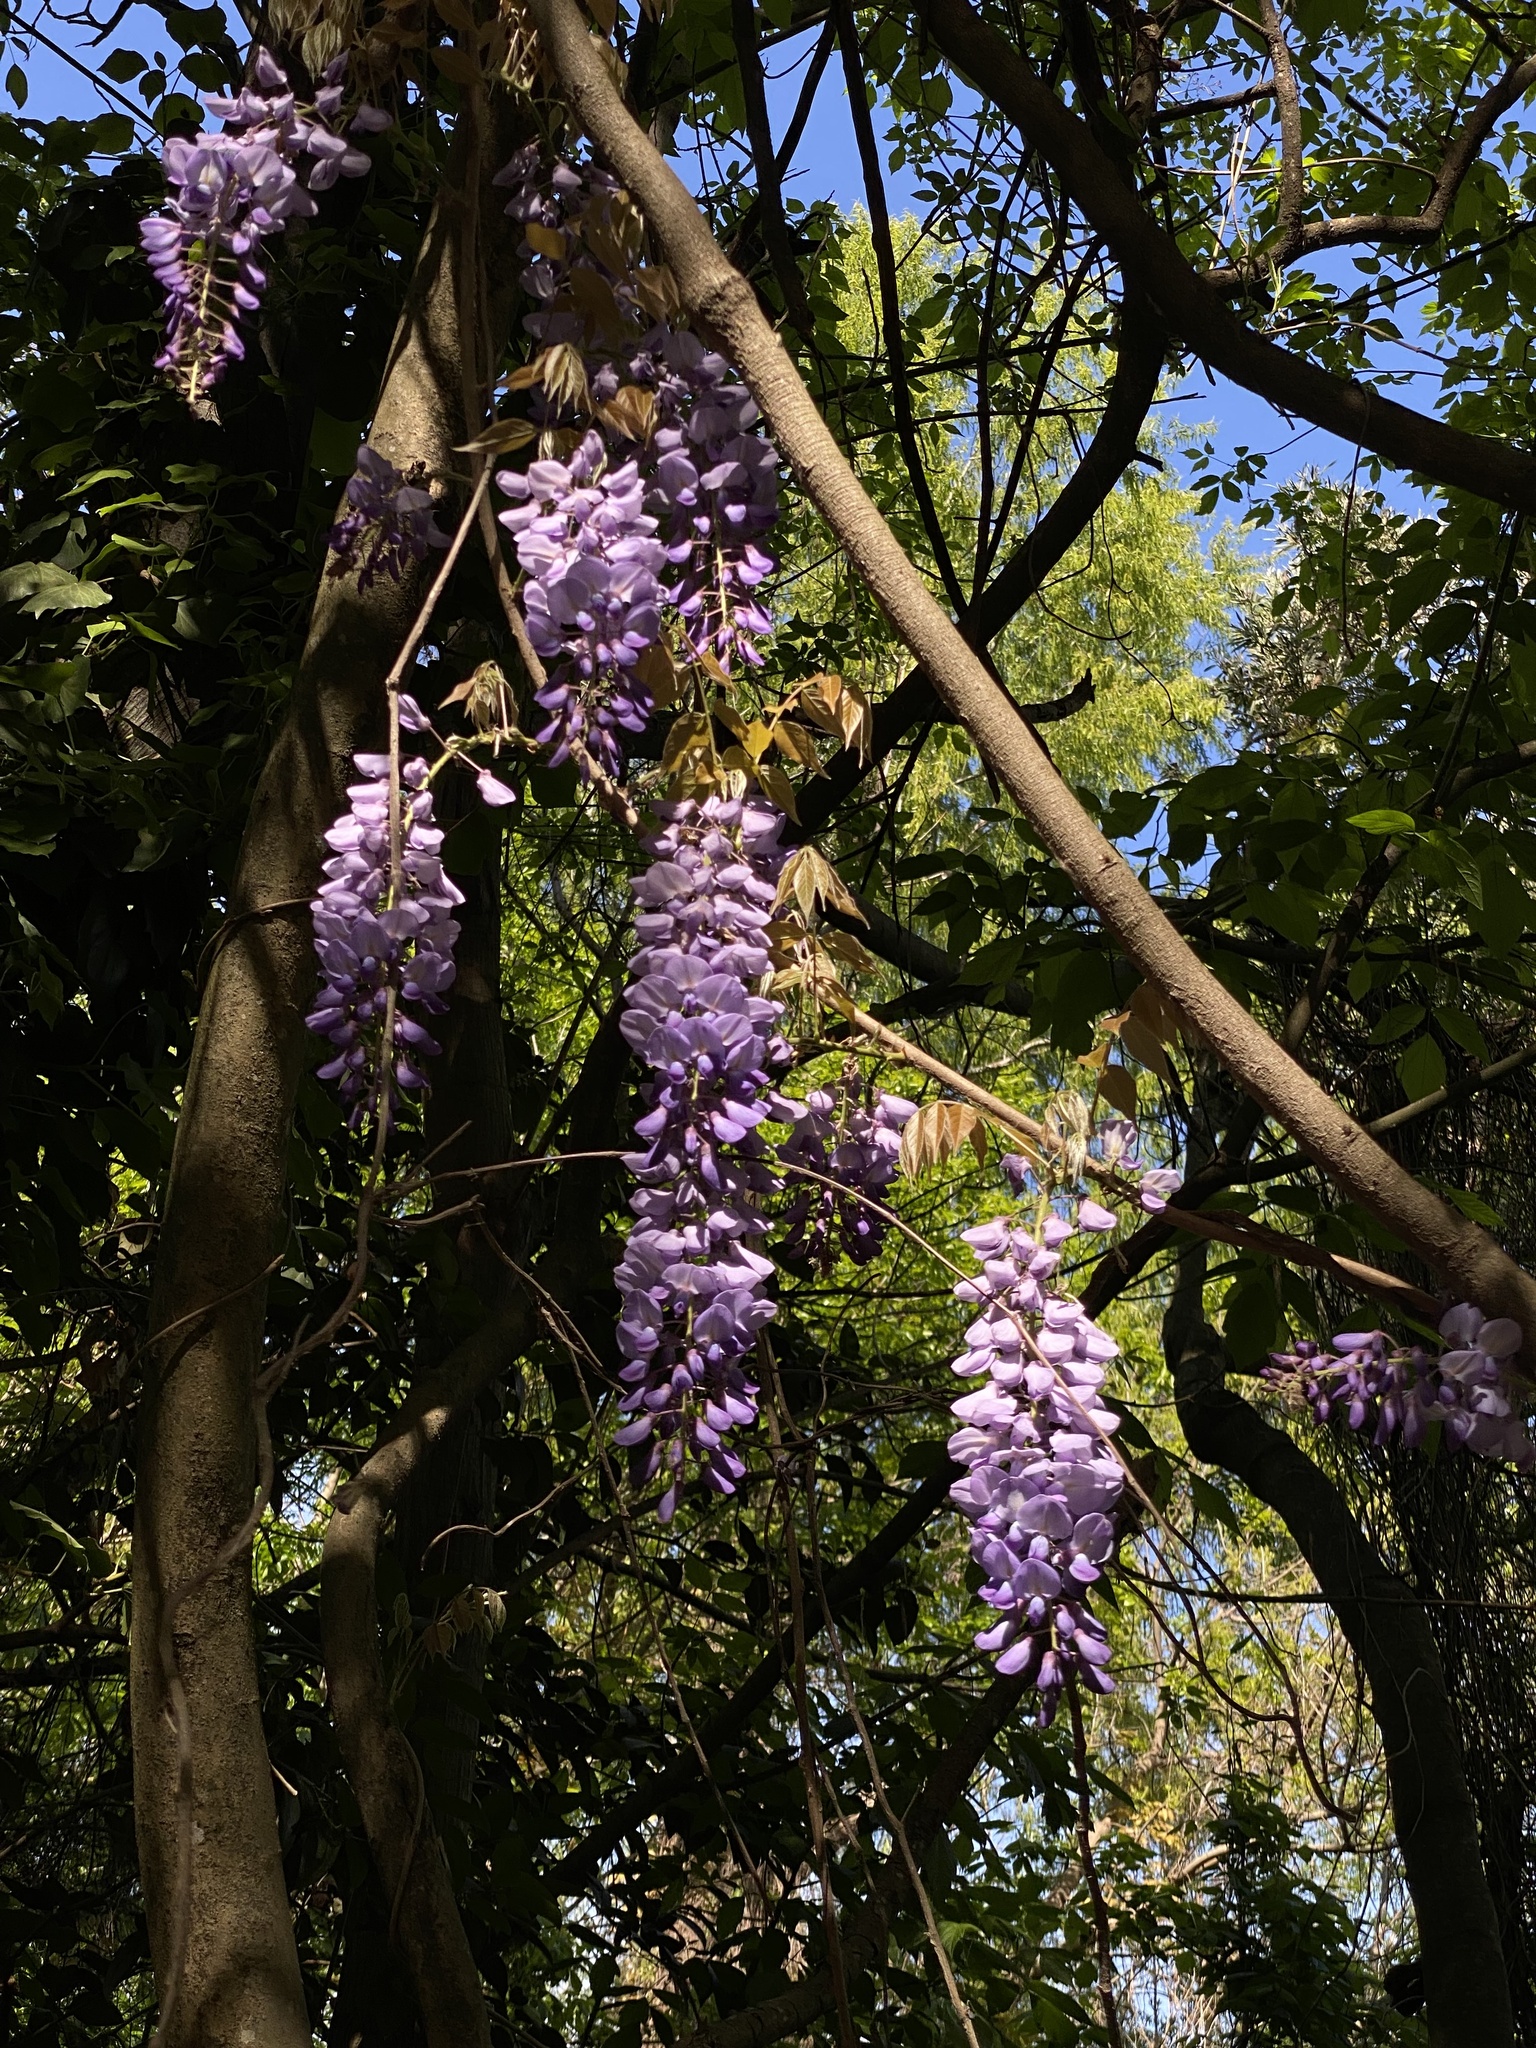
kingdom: Plantae
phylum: Tracheophyta
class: Magnoliopsida
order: Fabales
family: Fabaceae
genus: Wisteria
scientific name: Wisteria sinensis
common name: Chinese wisteria
